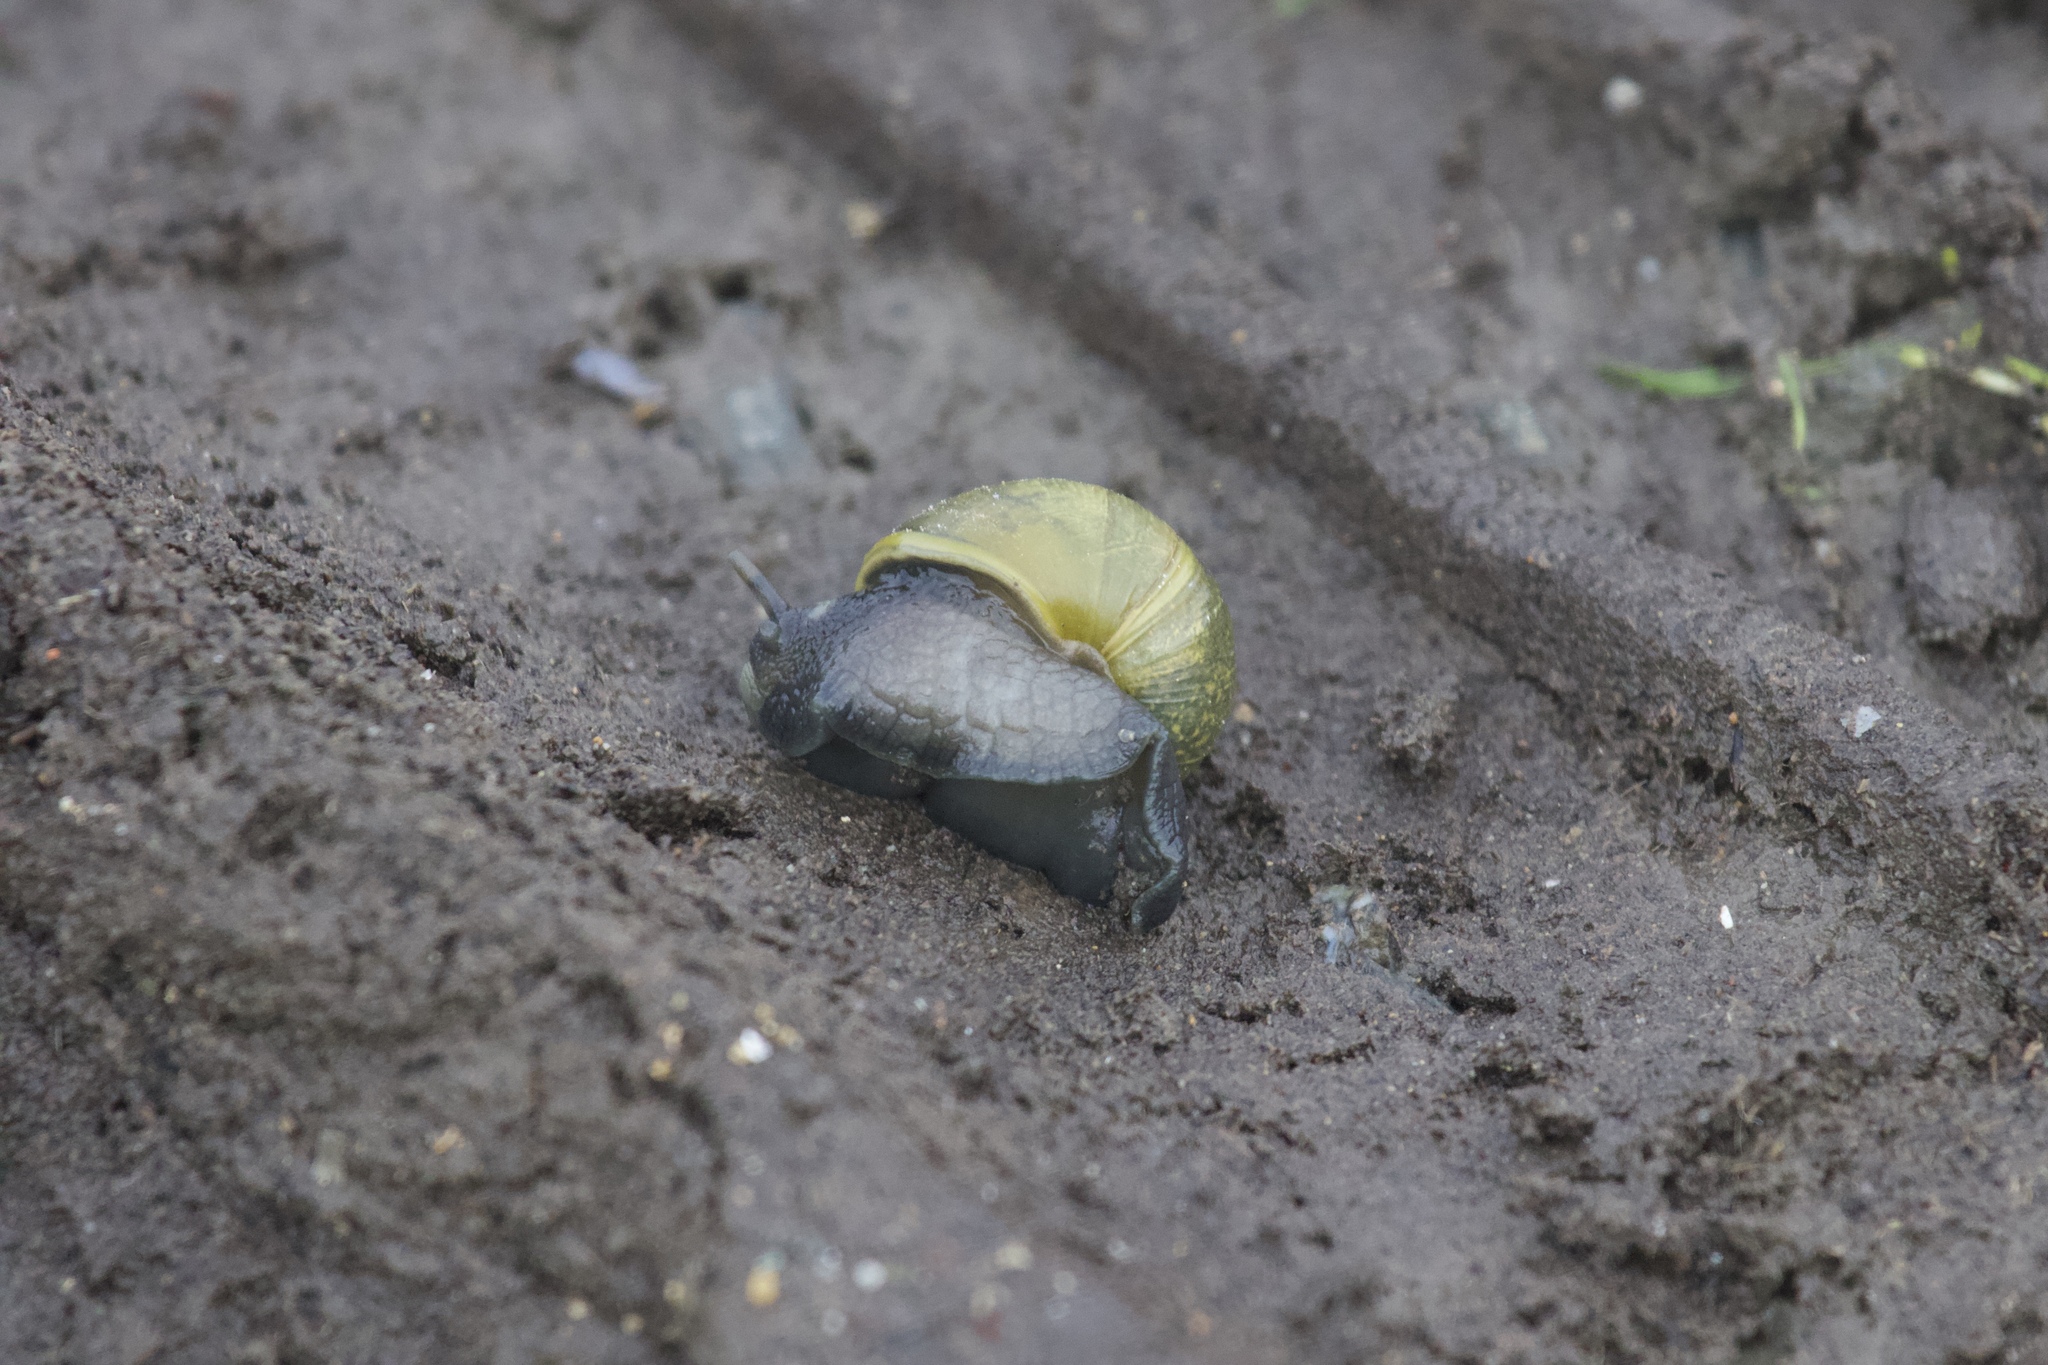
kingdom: Animalia
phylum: Mollusca
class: Gastropoda
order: Stylommatophora
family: Helicidae
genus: Cantareus
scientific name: Cantareus apertus
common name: Green gardensnail
